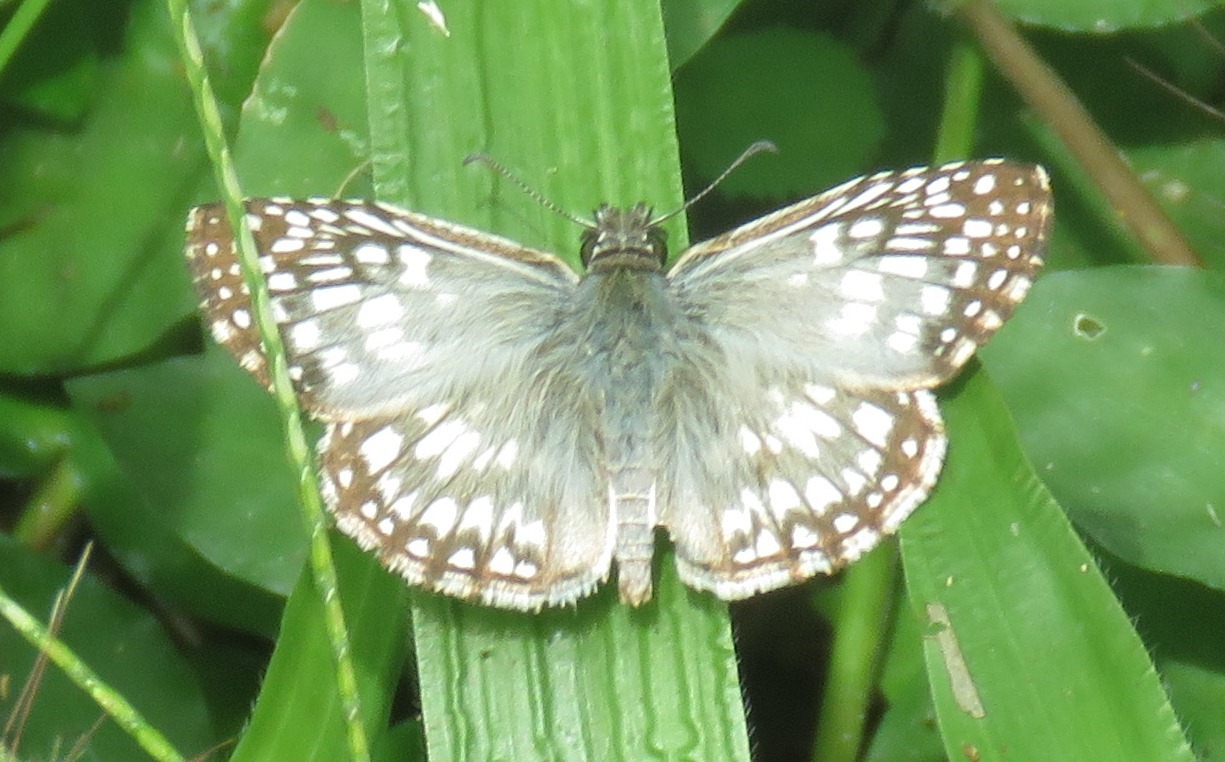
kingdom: Animalia
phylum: Arthropoda
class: Insecta
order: Lepidoptera
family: Hesperiidae
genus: Pyrgus
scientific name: Pyrgus oileus
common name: Tropical checkered-skipper
